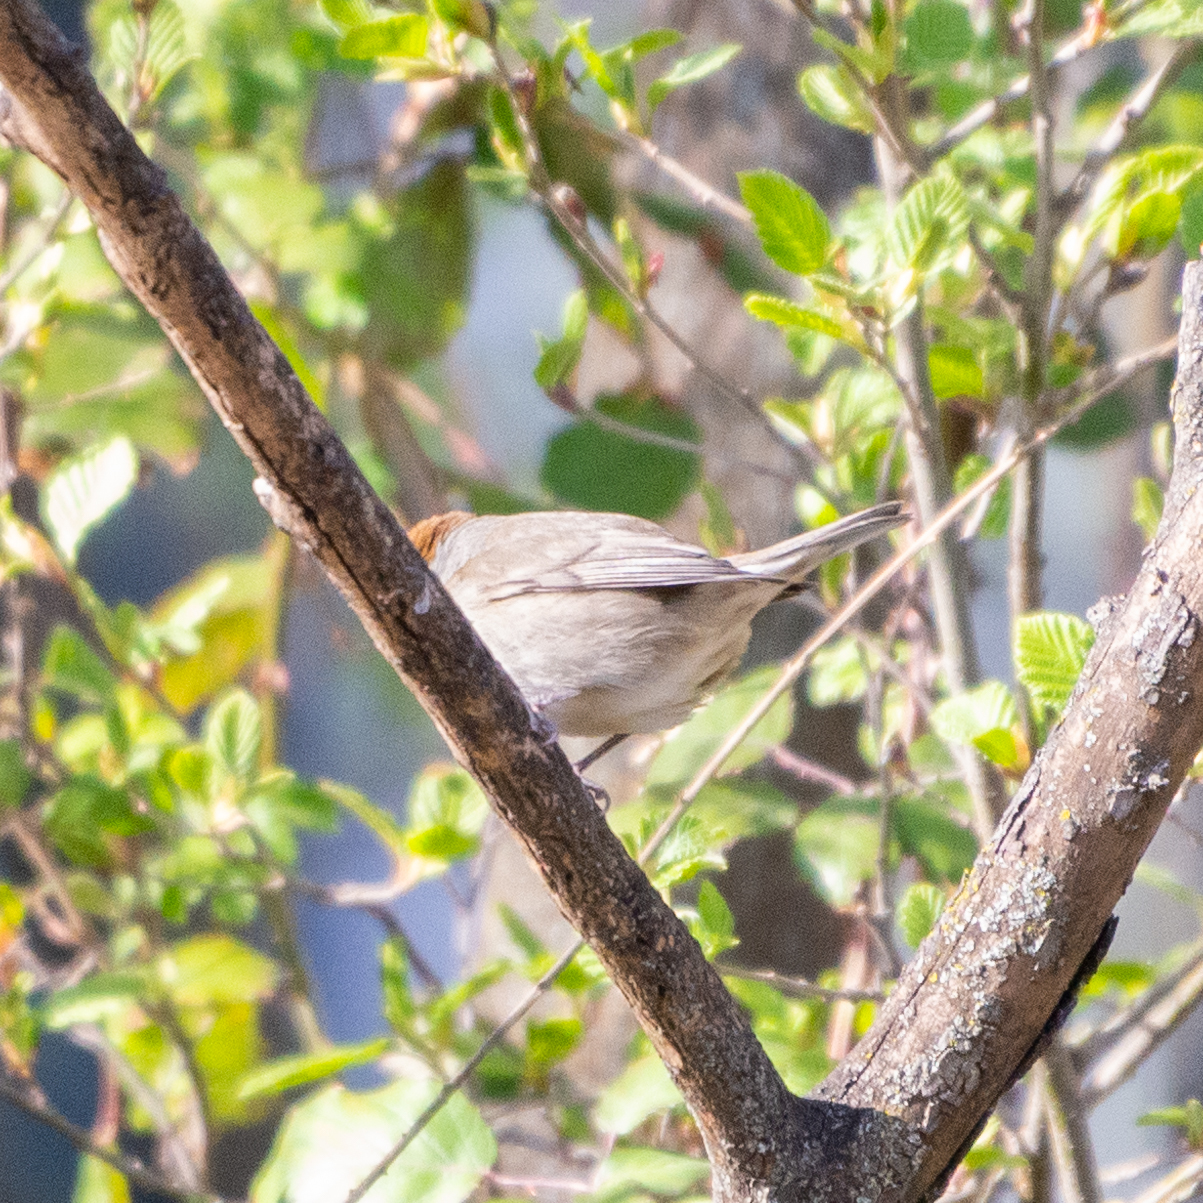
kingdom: Animalia
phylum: Chordata
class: Aves
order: Passeriformes
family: Sylviidae
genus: Sylvia
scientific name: Sylvia atricapilla
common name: Eurasian blackcap
